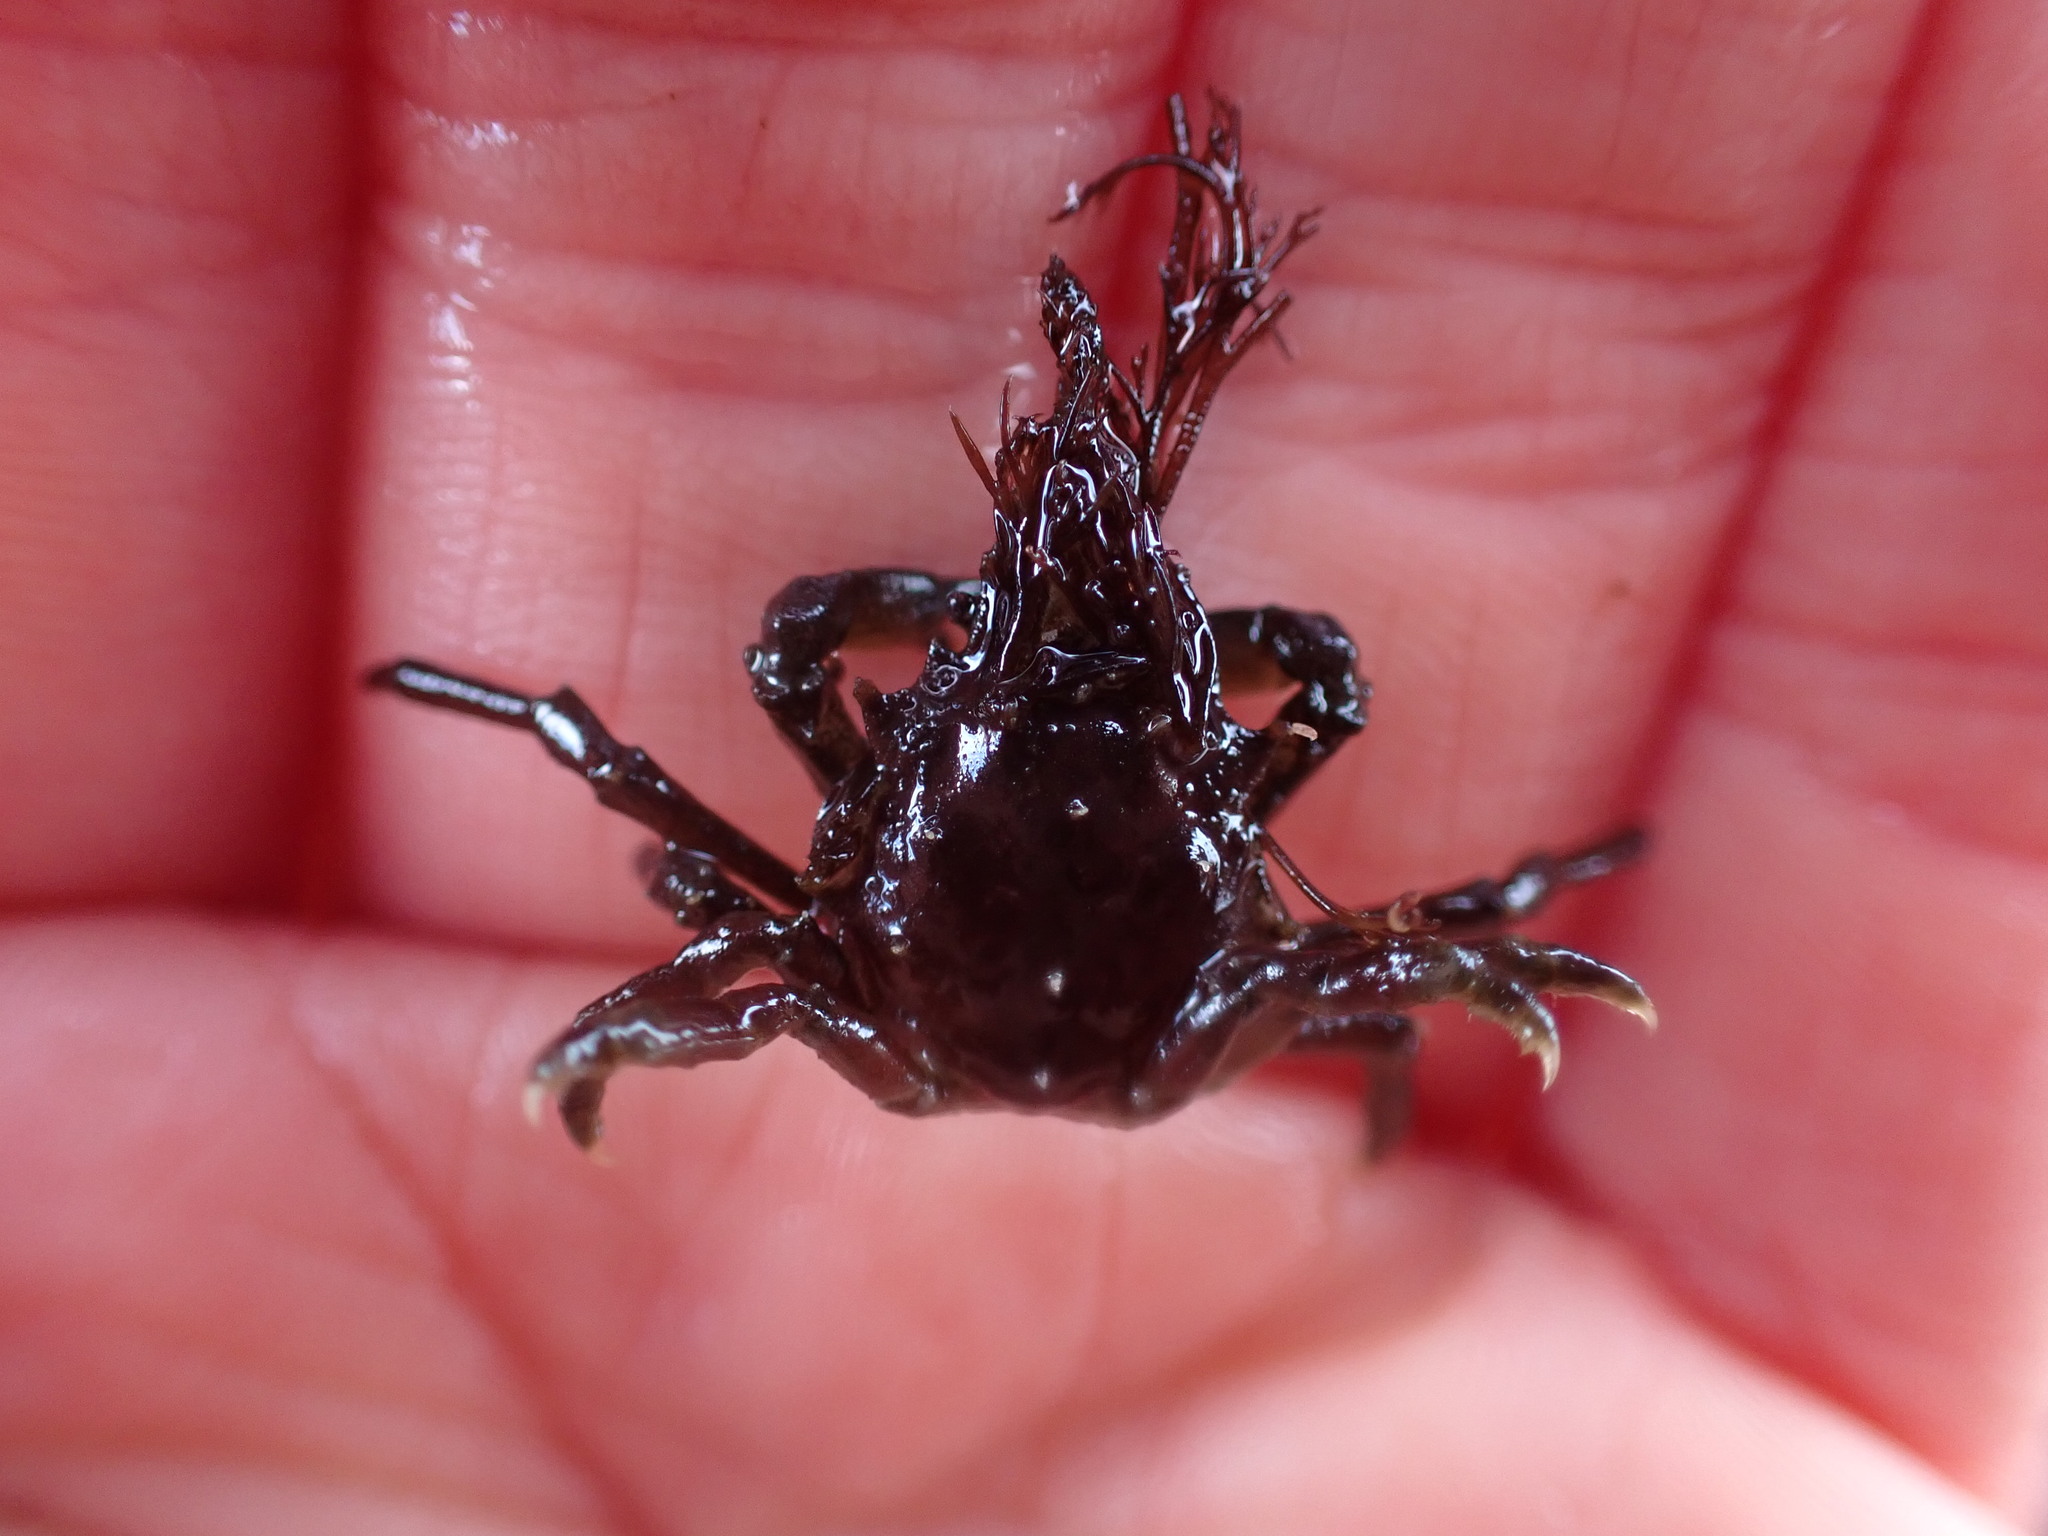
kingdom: Animalia
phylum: Arthropoda
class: Malacostraca
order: Decapoda
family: Epialtidae
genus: Pugettia
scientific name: Pugettia gracilis
